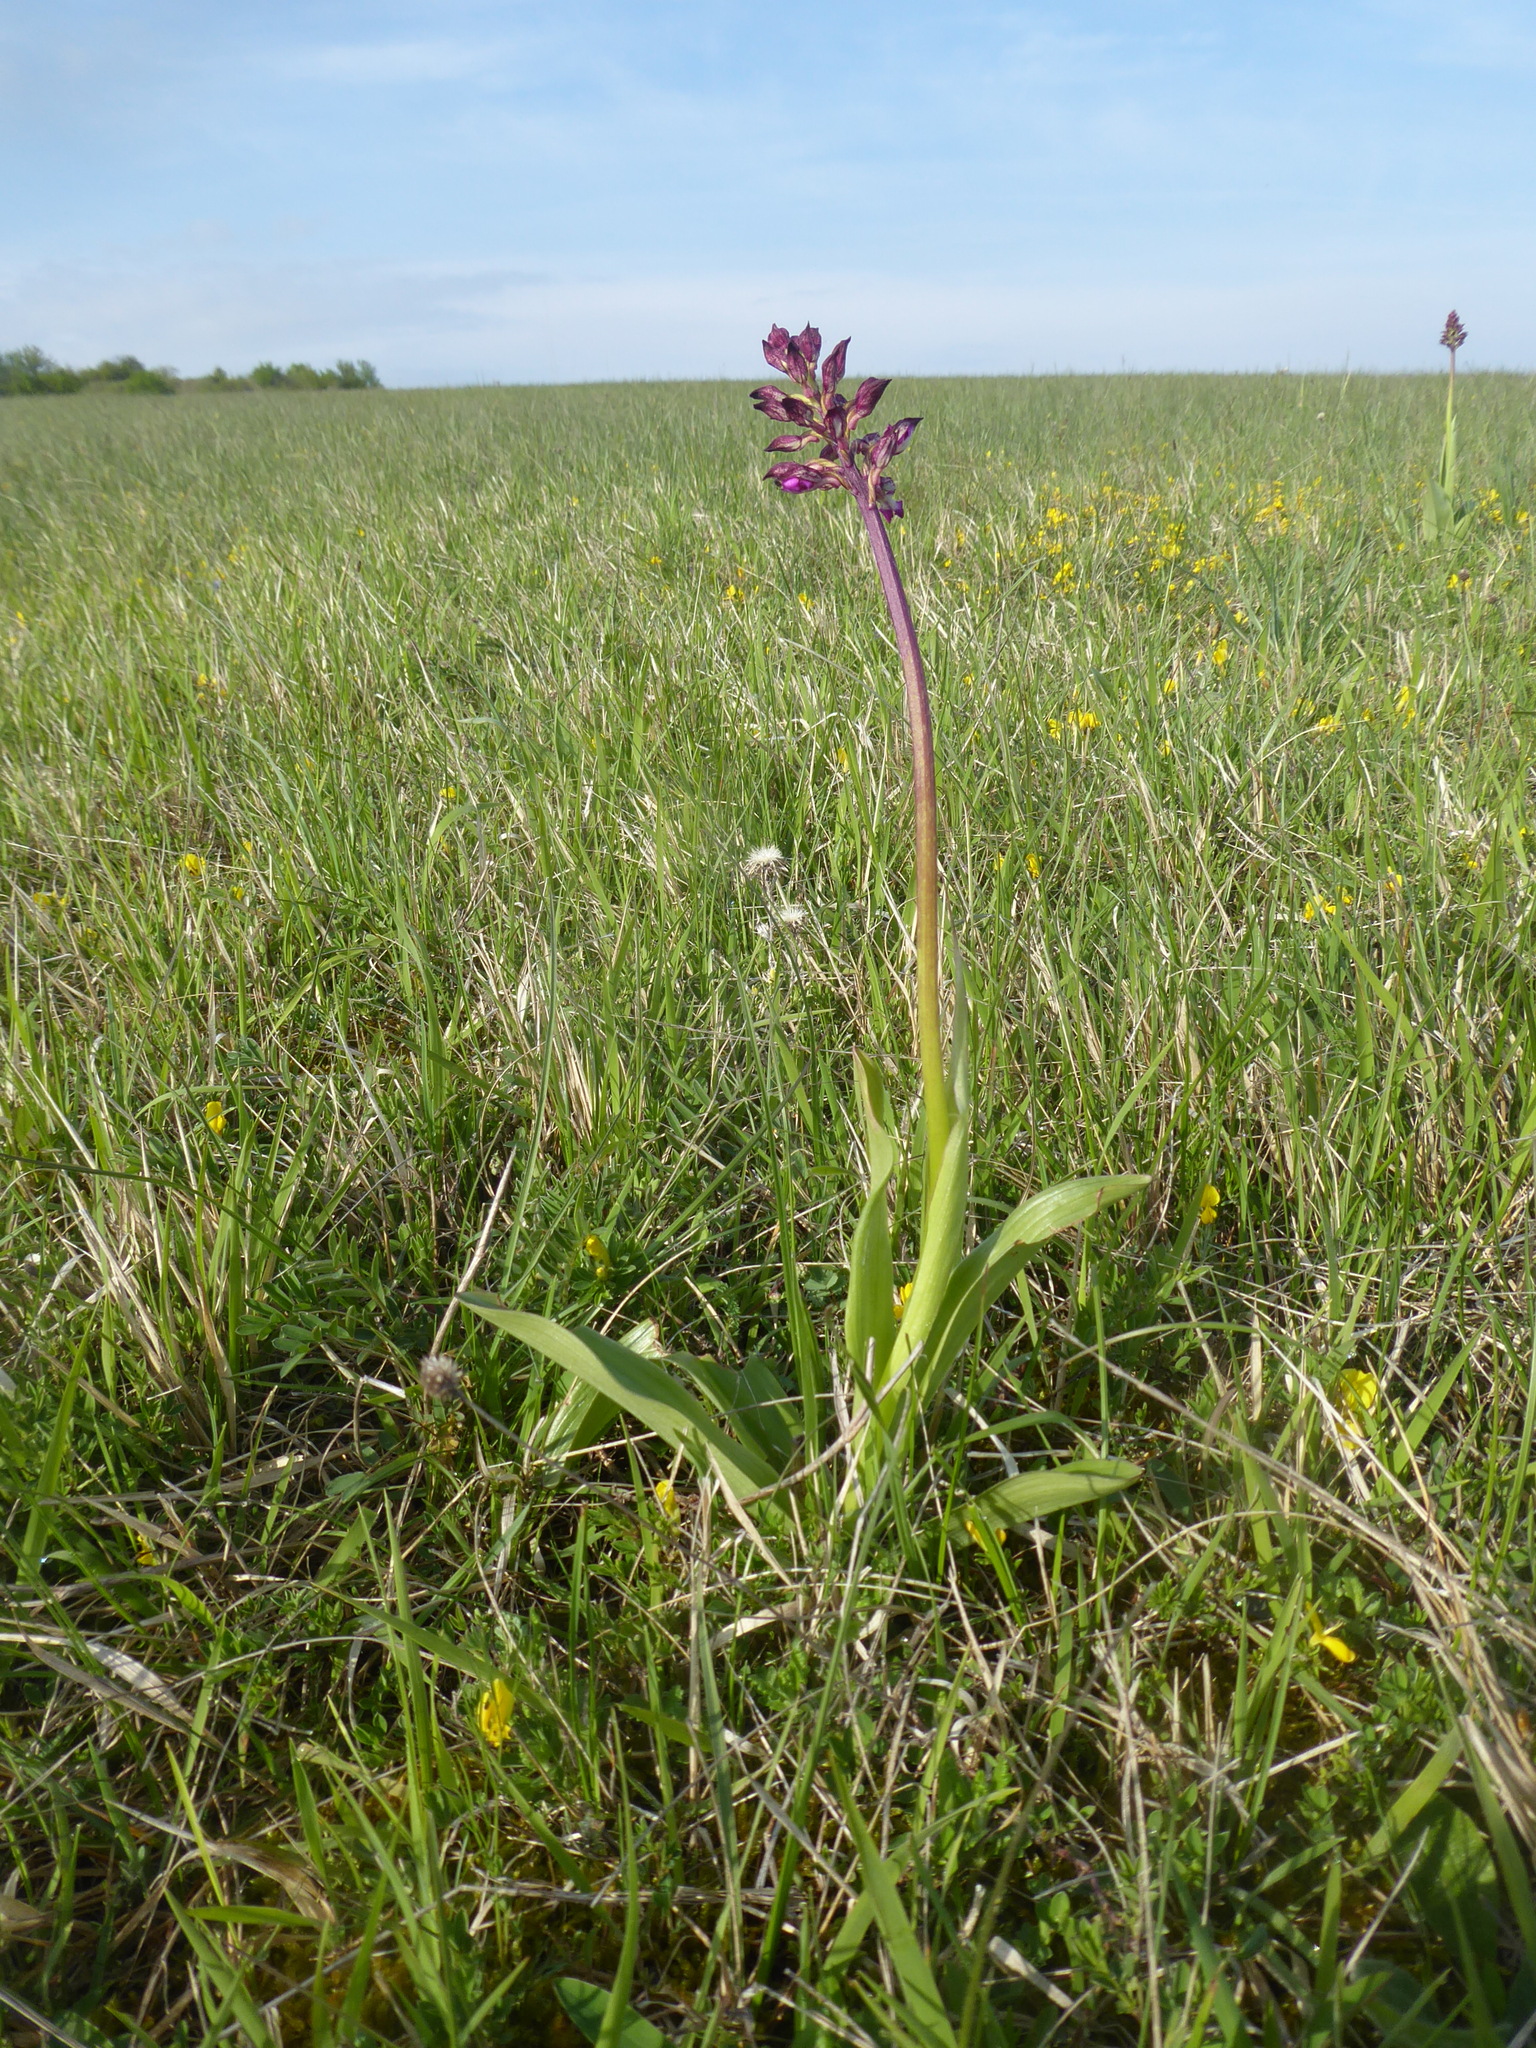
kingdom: Plantae
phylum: Tracheophyta
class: Liliopsida
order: Asparagales
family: Orchidaceae
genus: Orchis
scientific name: Orchis purpurea
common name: Lady orchid
